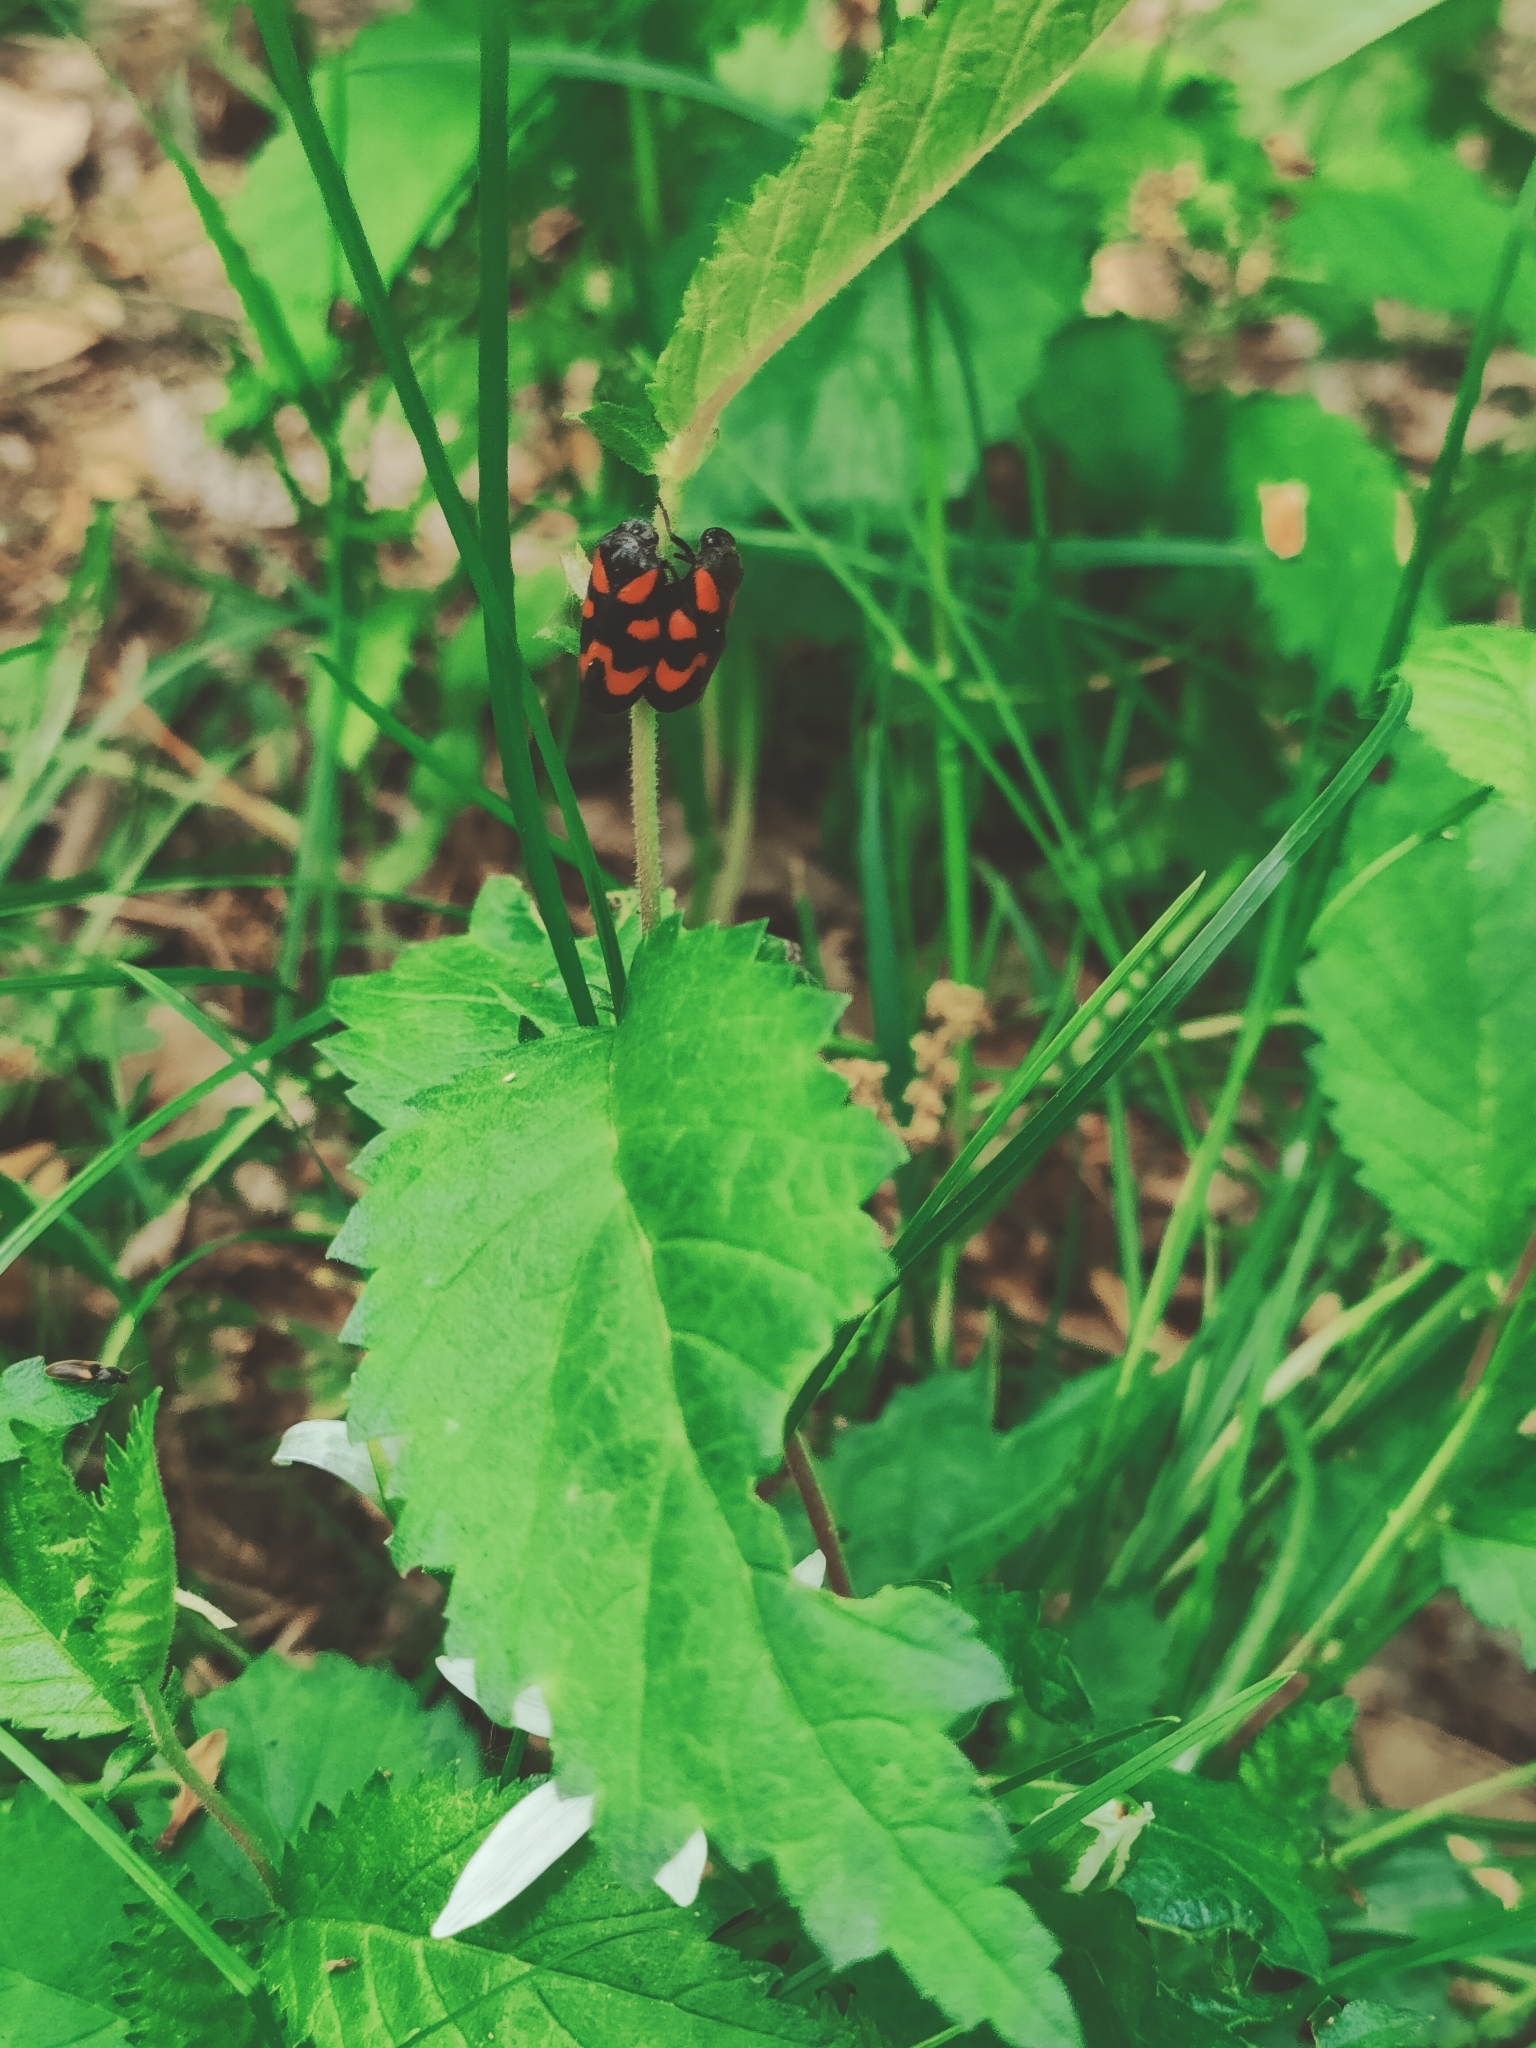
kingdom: Animalia
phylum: Arthropoda
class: Insecta
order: Hemiptera
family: Cercopidae
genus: Cercopis
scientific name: Cercopis vulnerata
